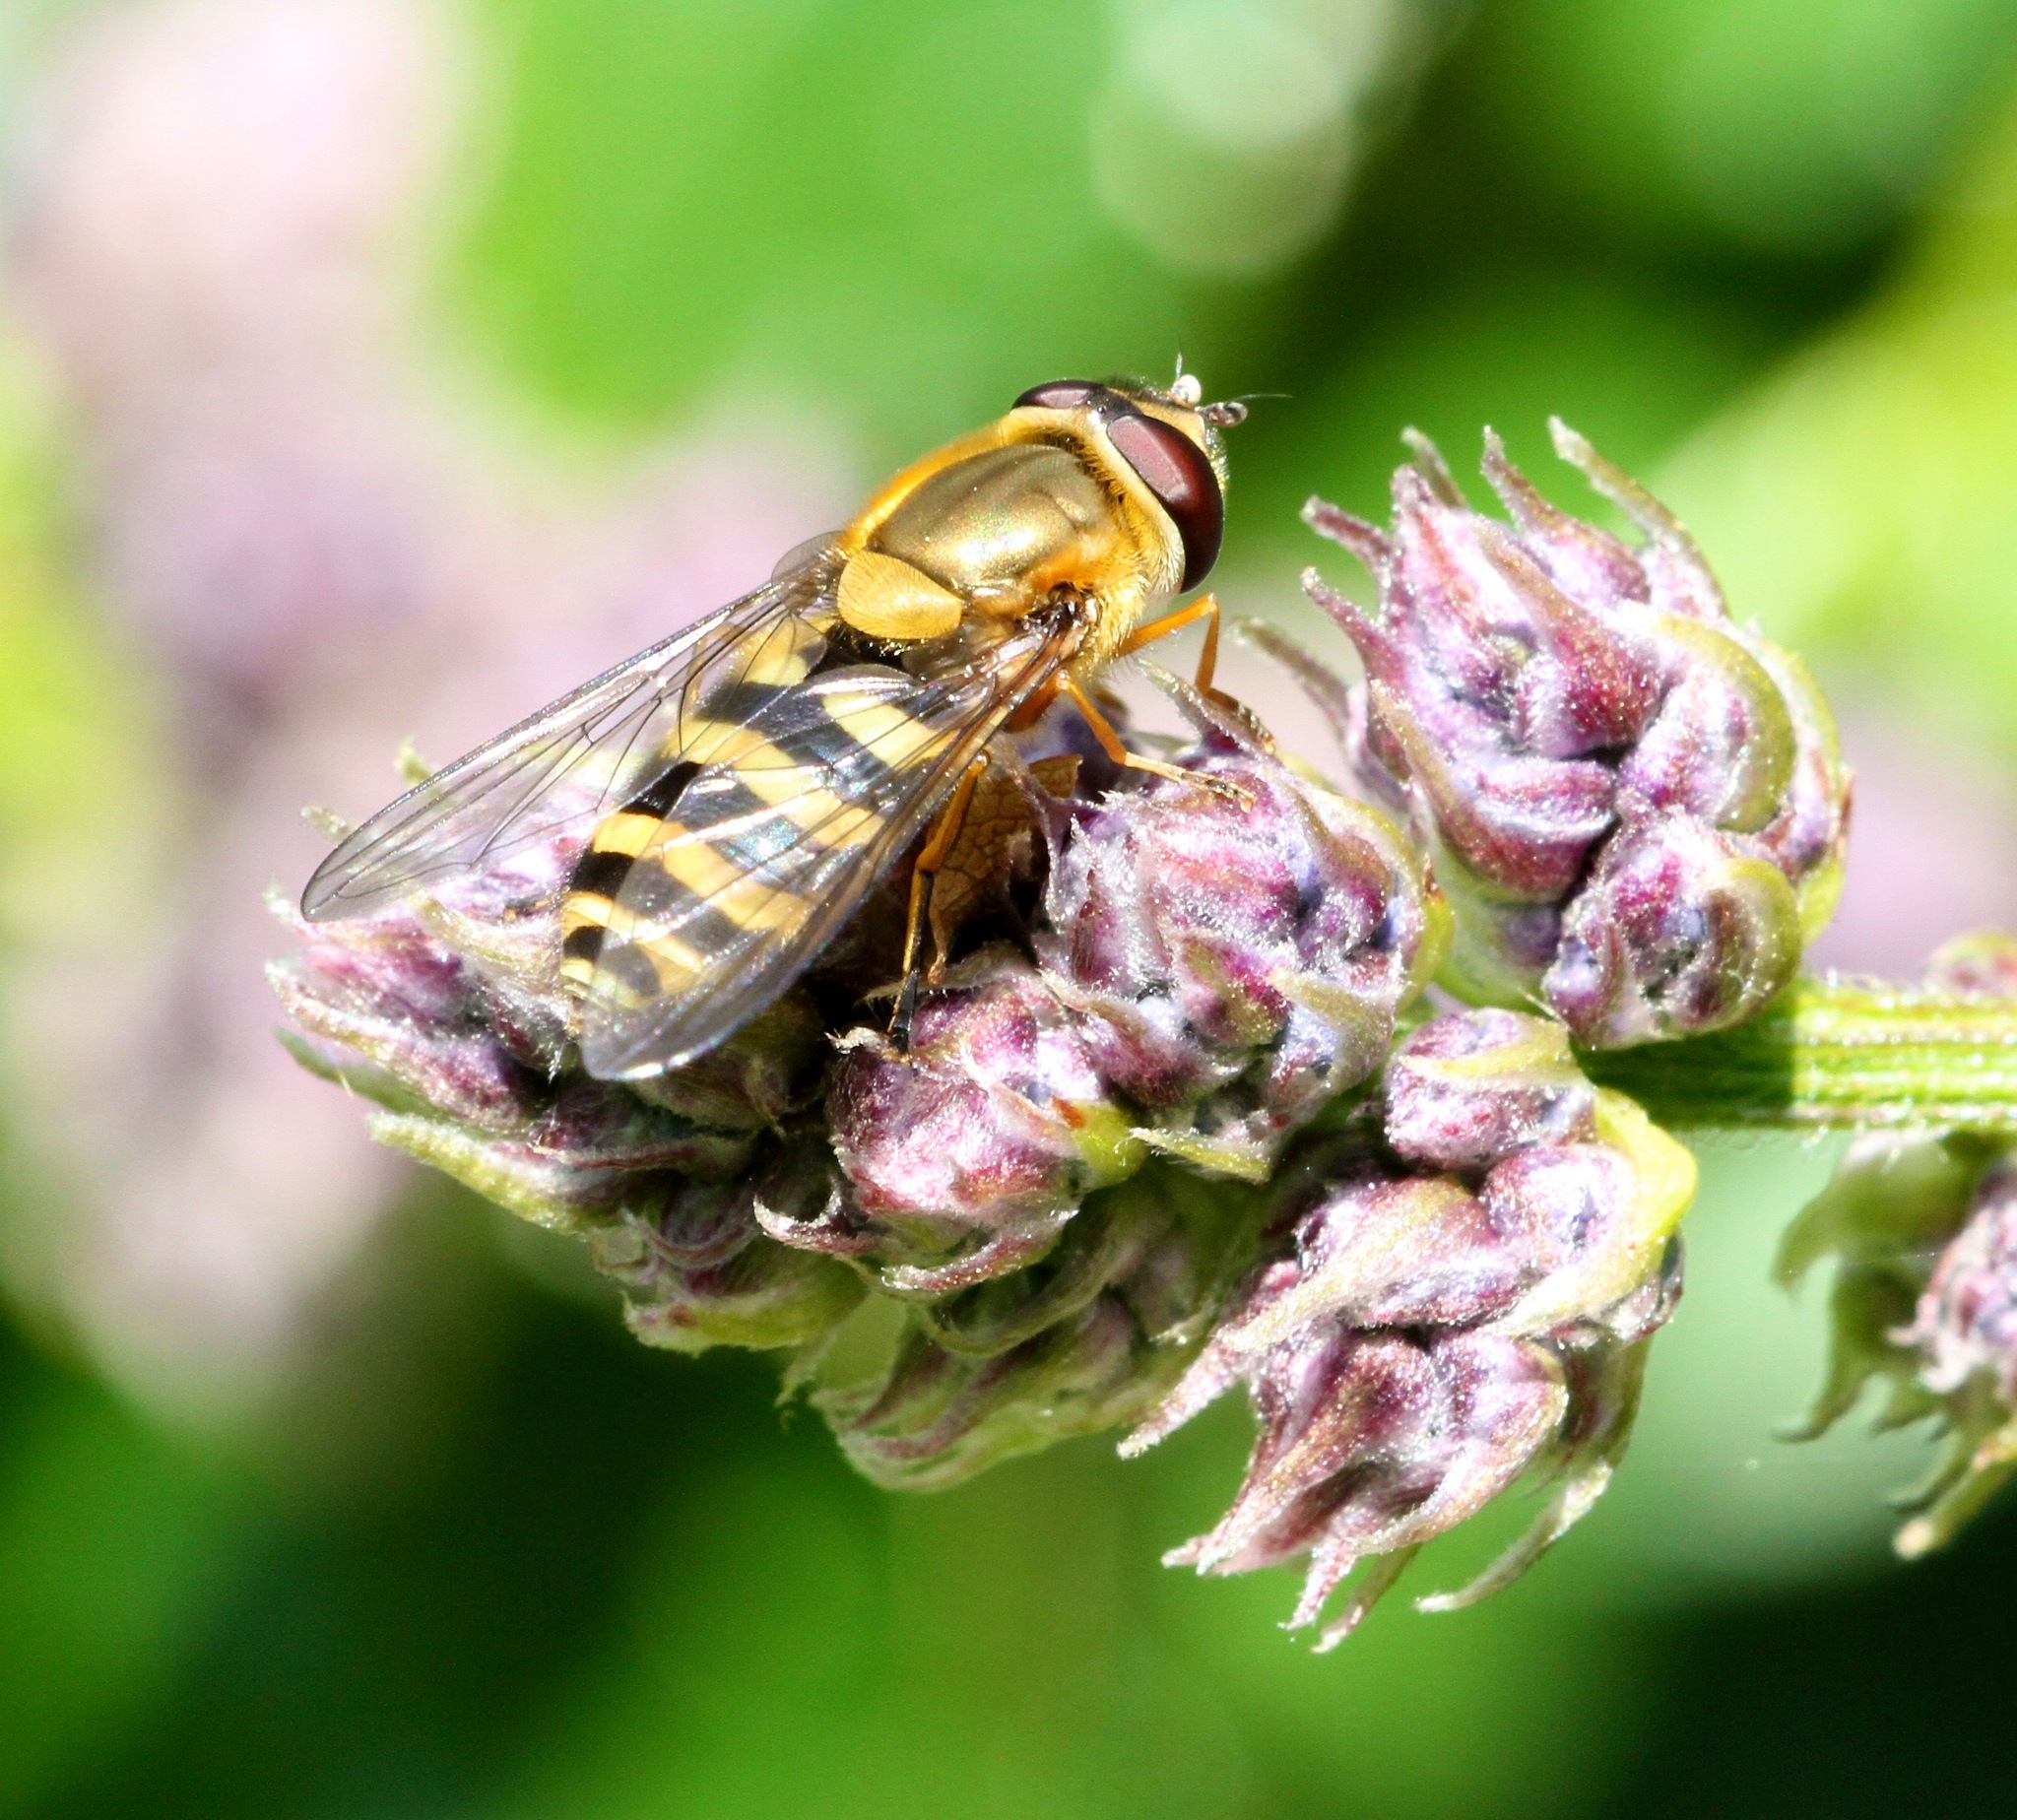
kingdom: Animalia
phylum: Arthropoda
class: Insecta
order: Diptera
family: Syrphidae
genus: Syrphus
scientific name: Syrphus
